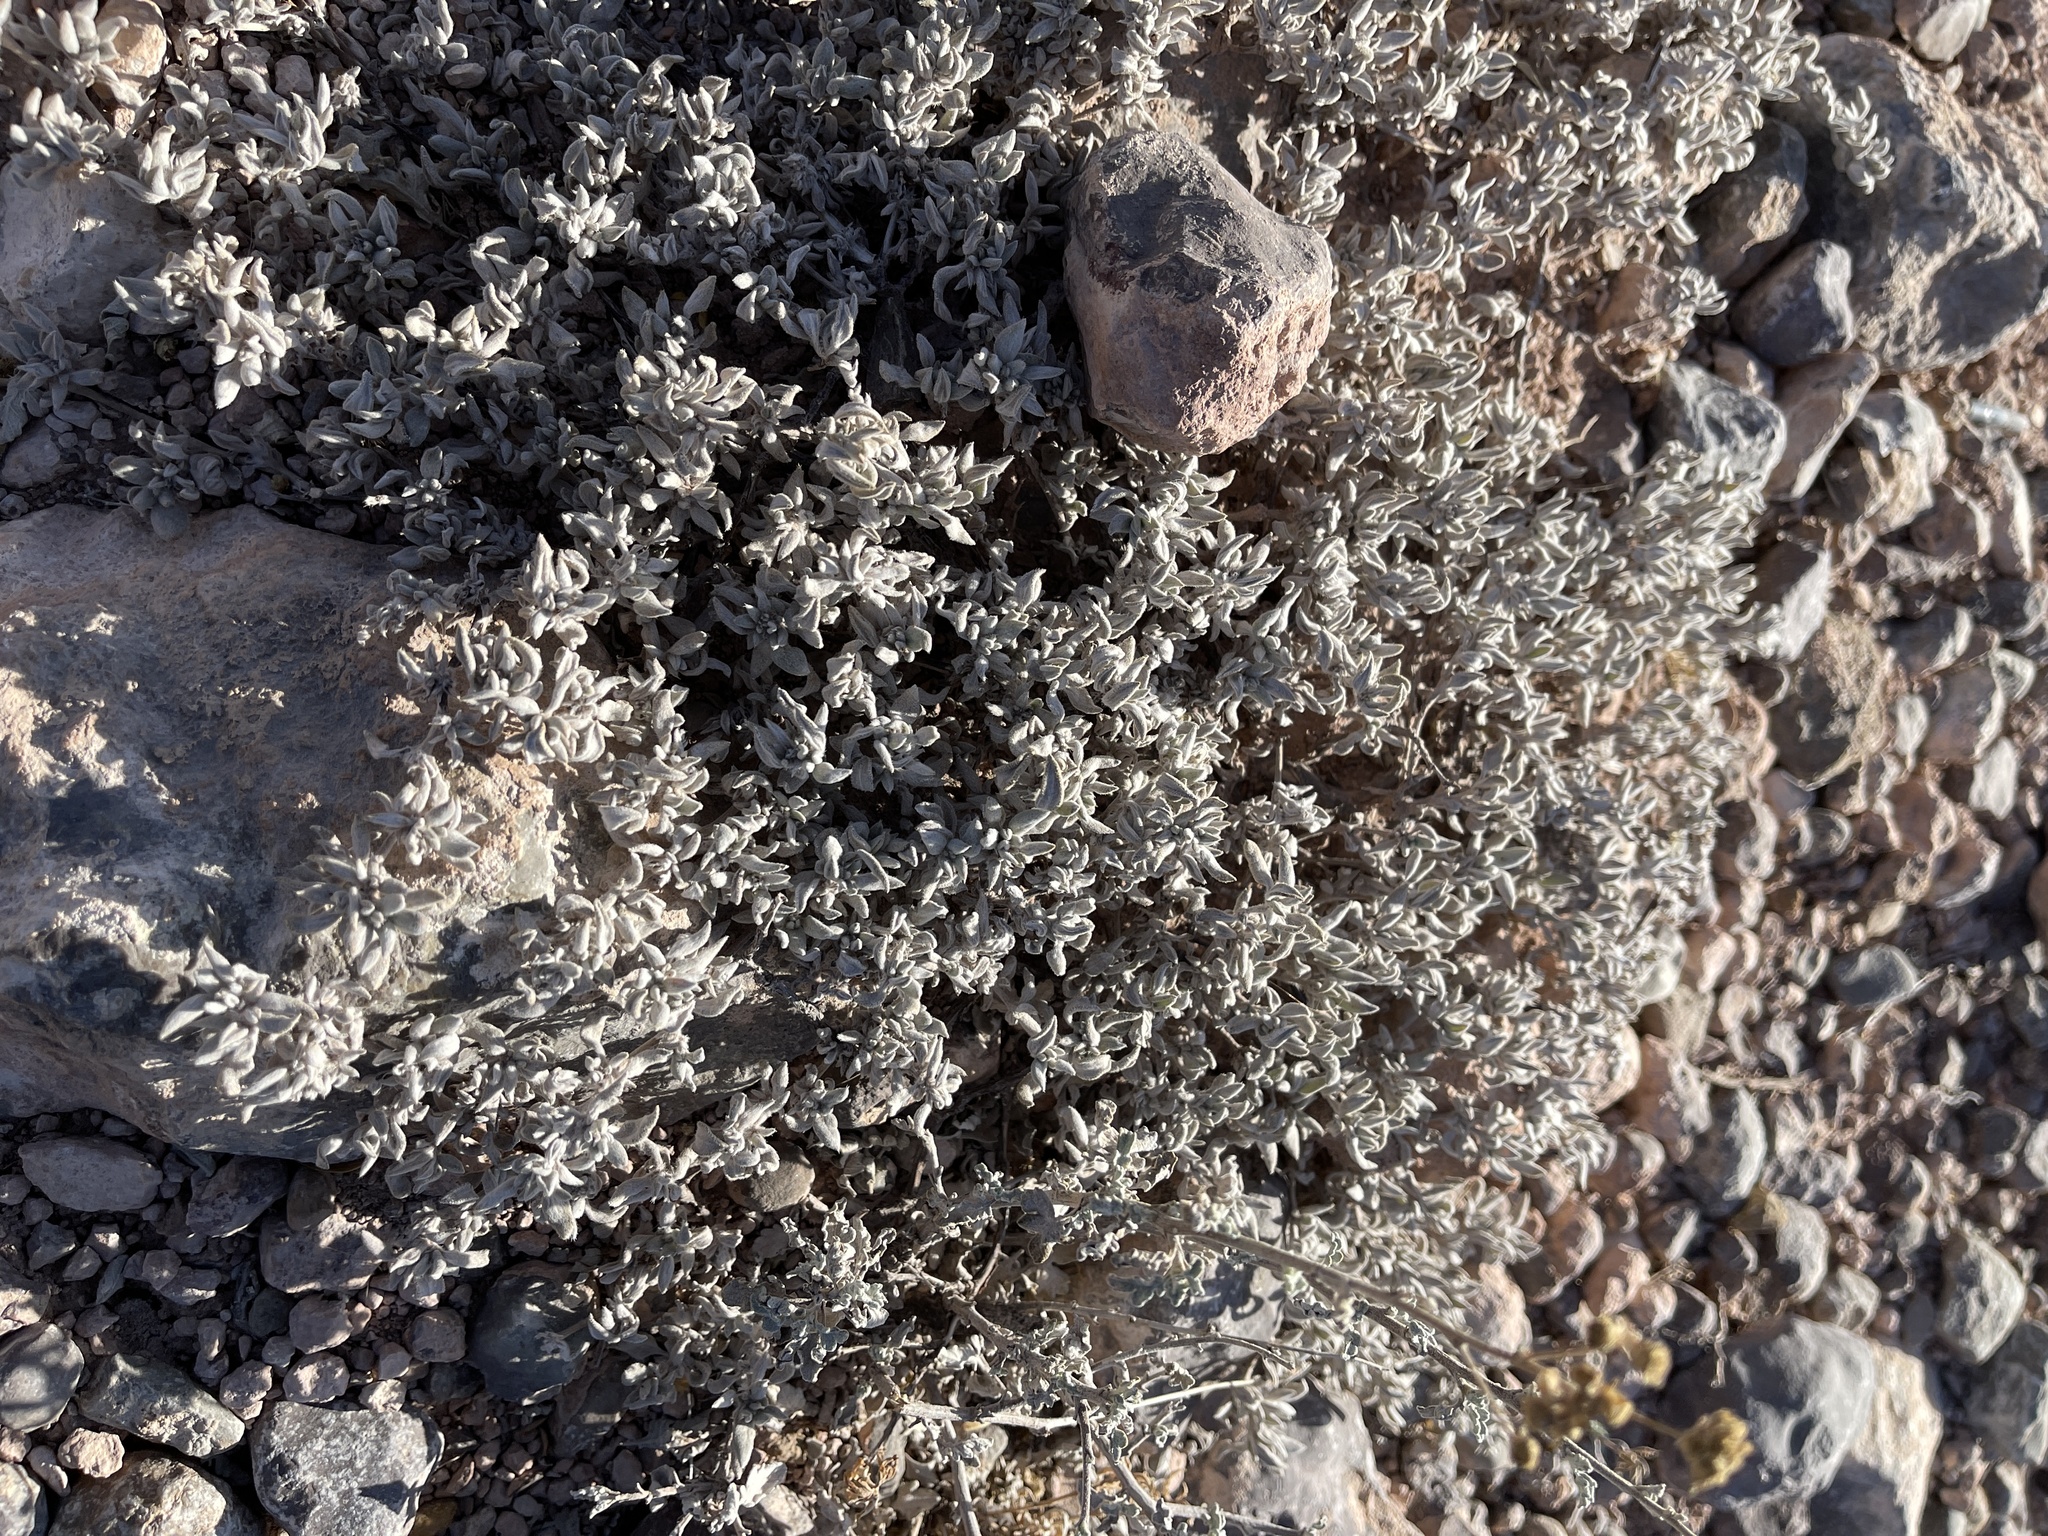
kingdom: Plantae
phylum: Tracheophyta
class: Magnoliopsida
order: Boraginales
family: Ehretiaceae
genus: Tiquilia
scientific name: Tiquilia canescens
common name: Hairy tiquilia
